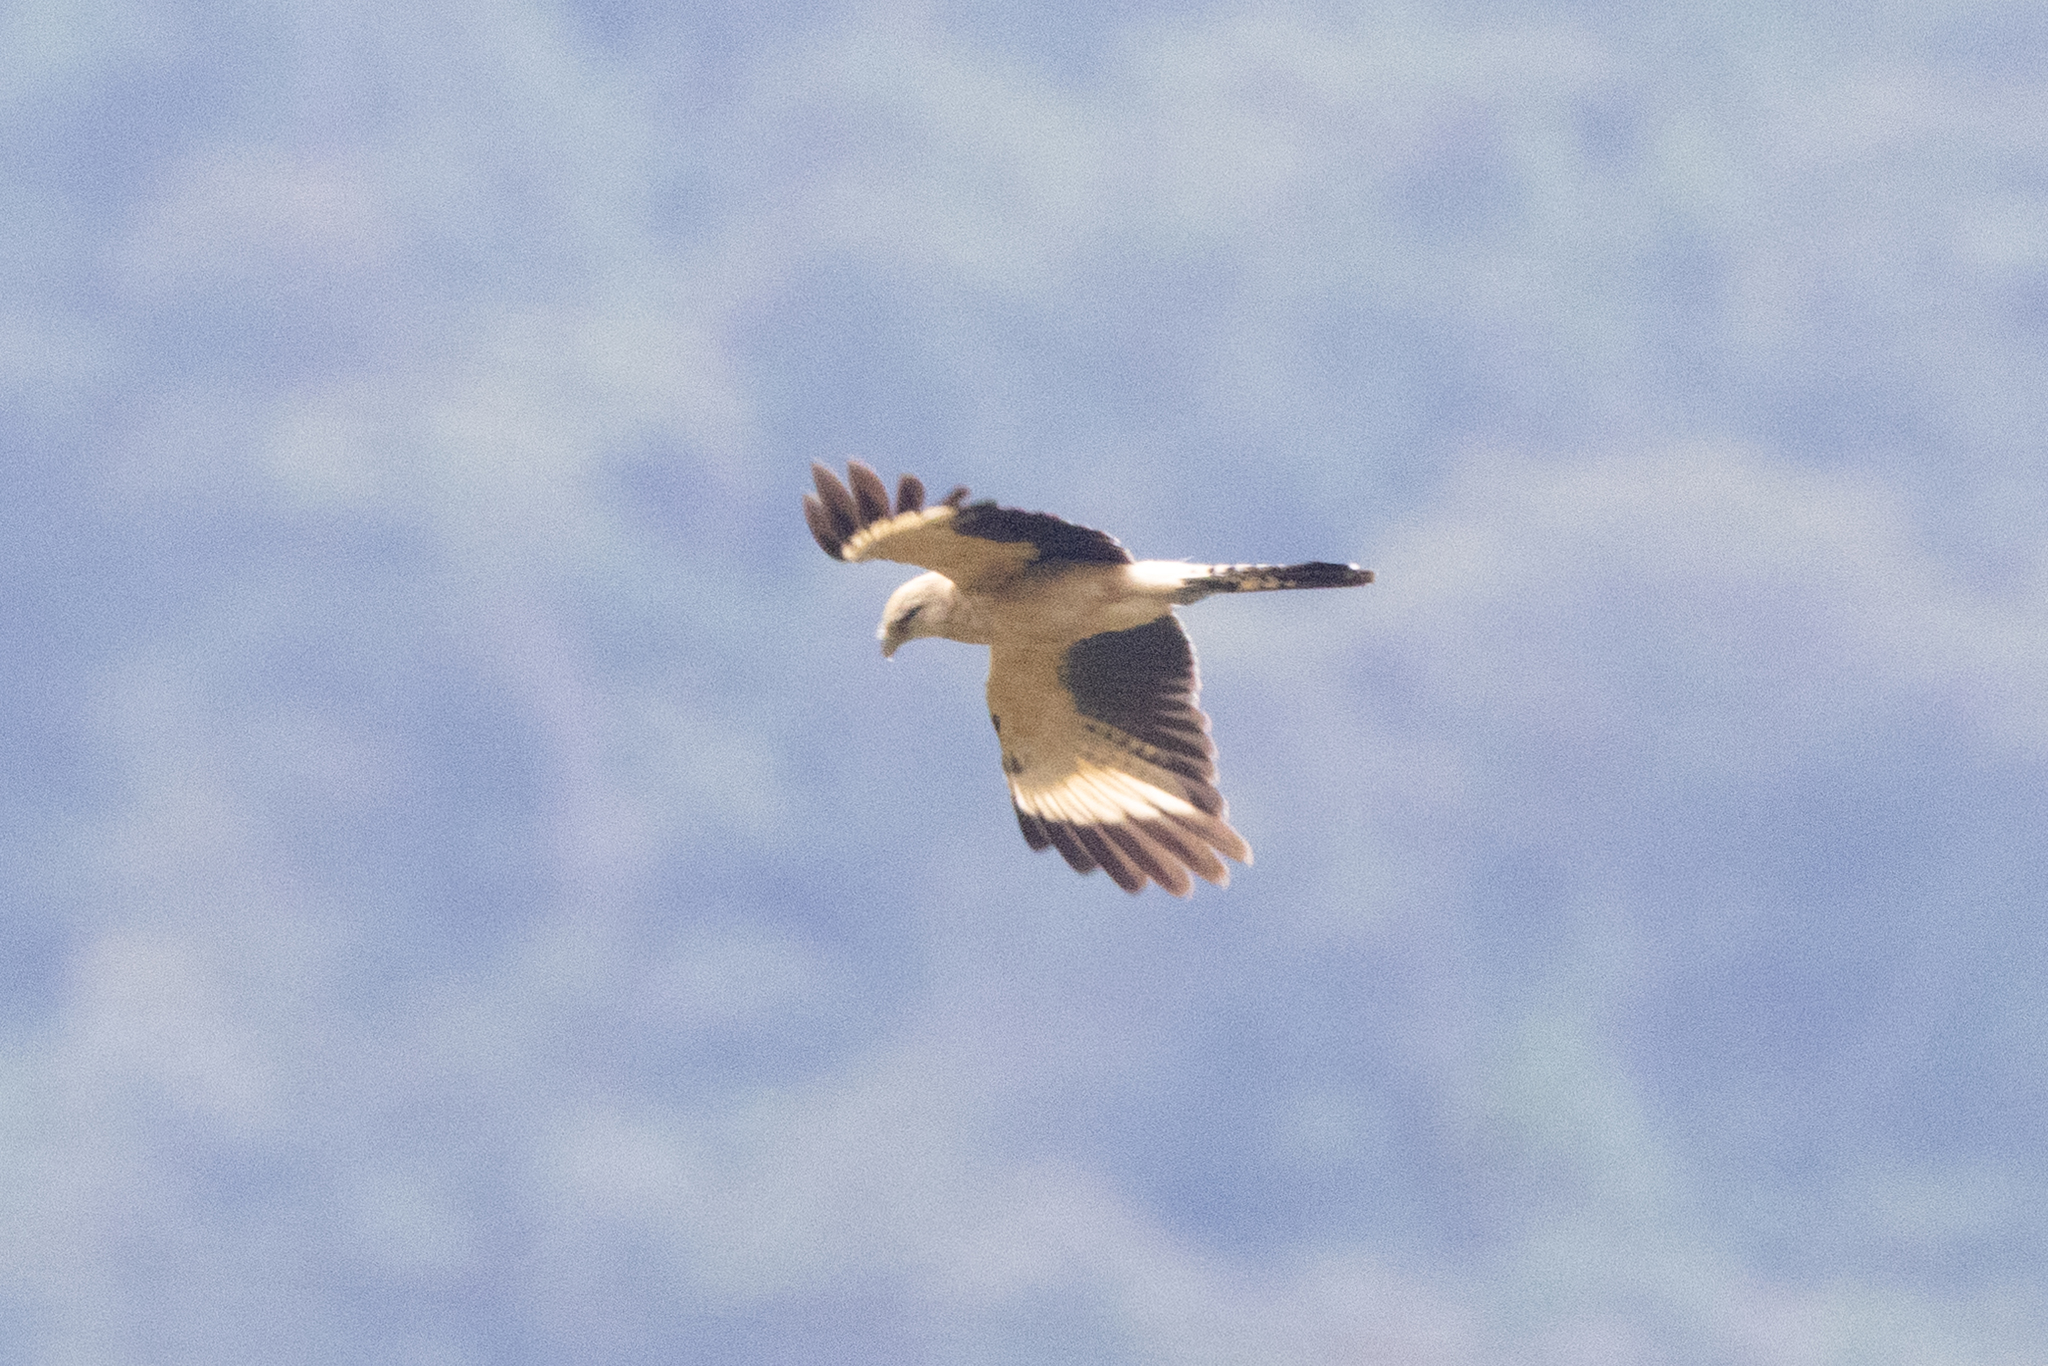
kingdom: Animalia
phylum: Chordata
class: Aves
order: Falconiformes
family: Falconidae
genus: Daptrius
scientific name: Daptrius
